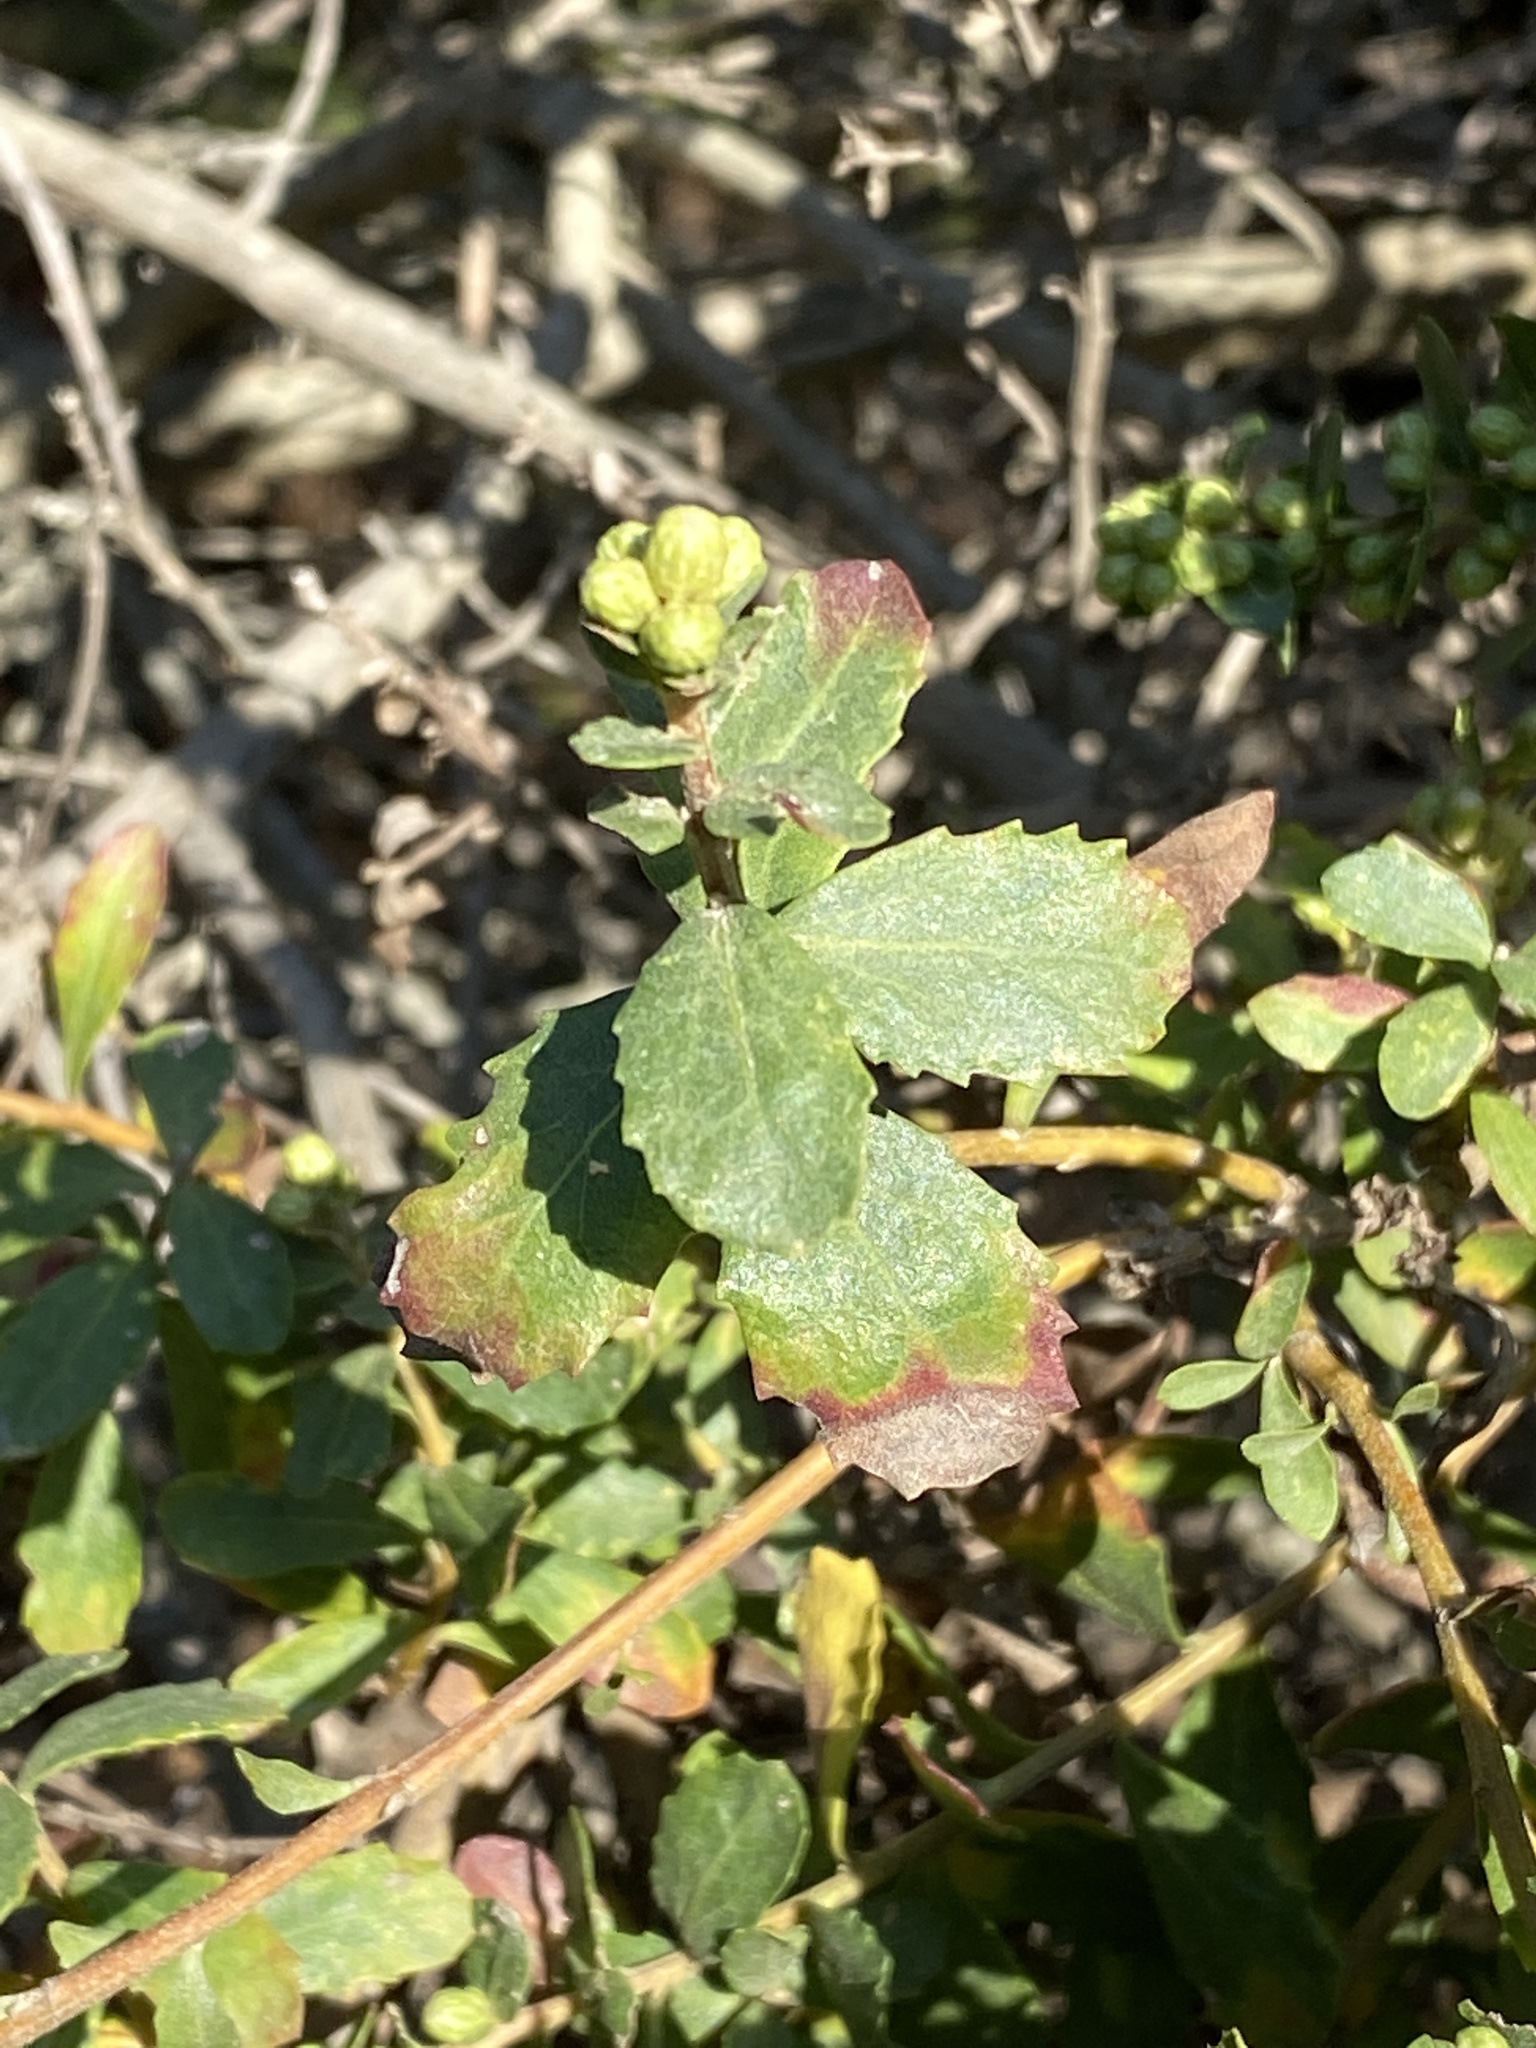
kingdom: Plantae
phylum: Tracheophyta
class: Magnoliopsida
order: Asterales
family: Asteraceae
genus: Baccharis
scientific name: Baccharis pilularis
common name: Coyotebrush
